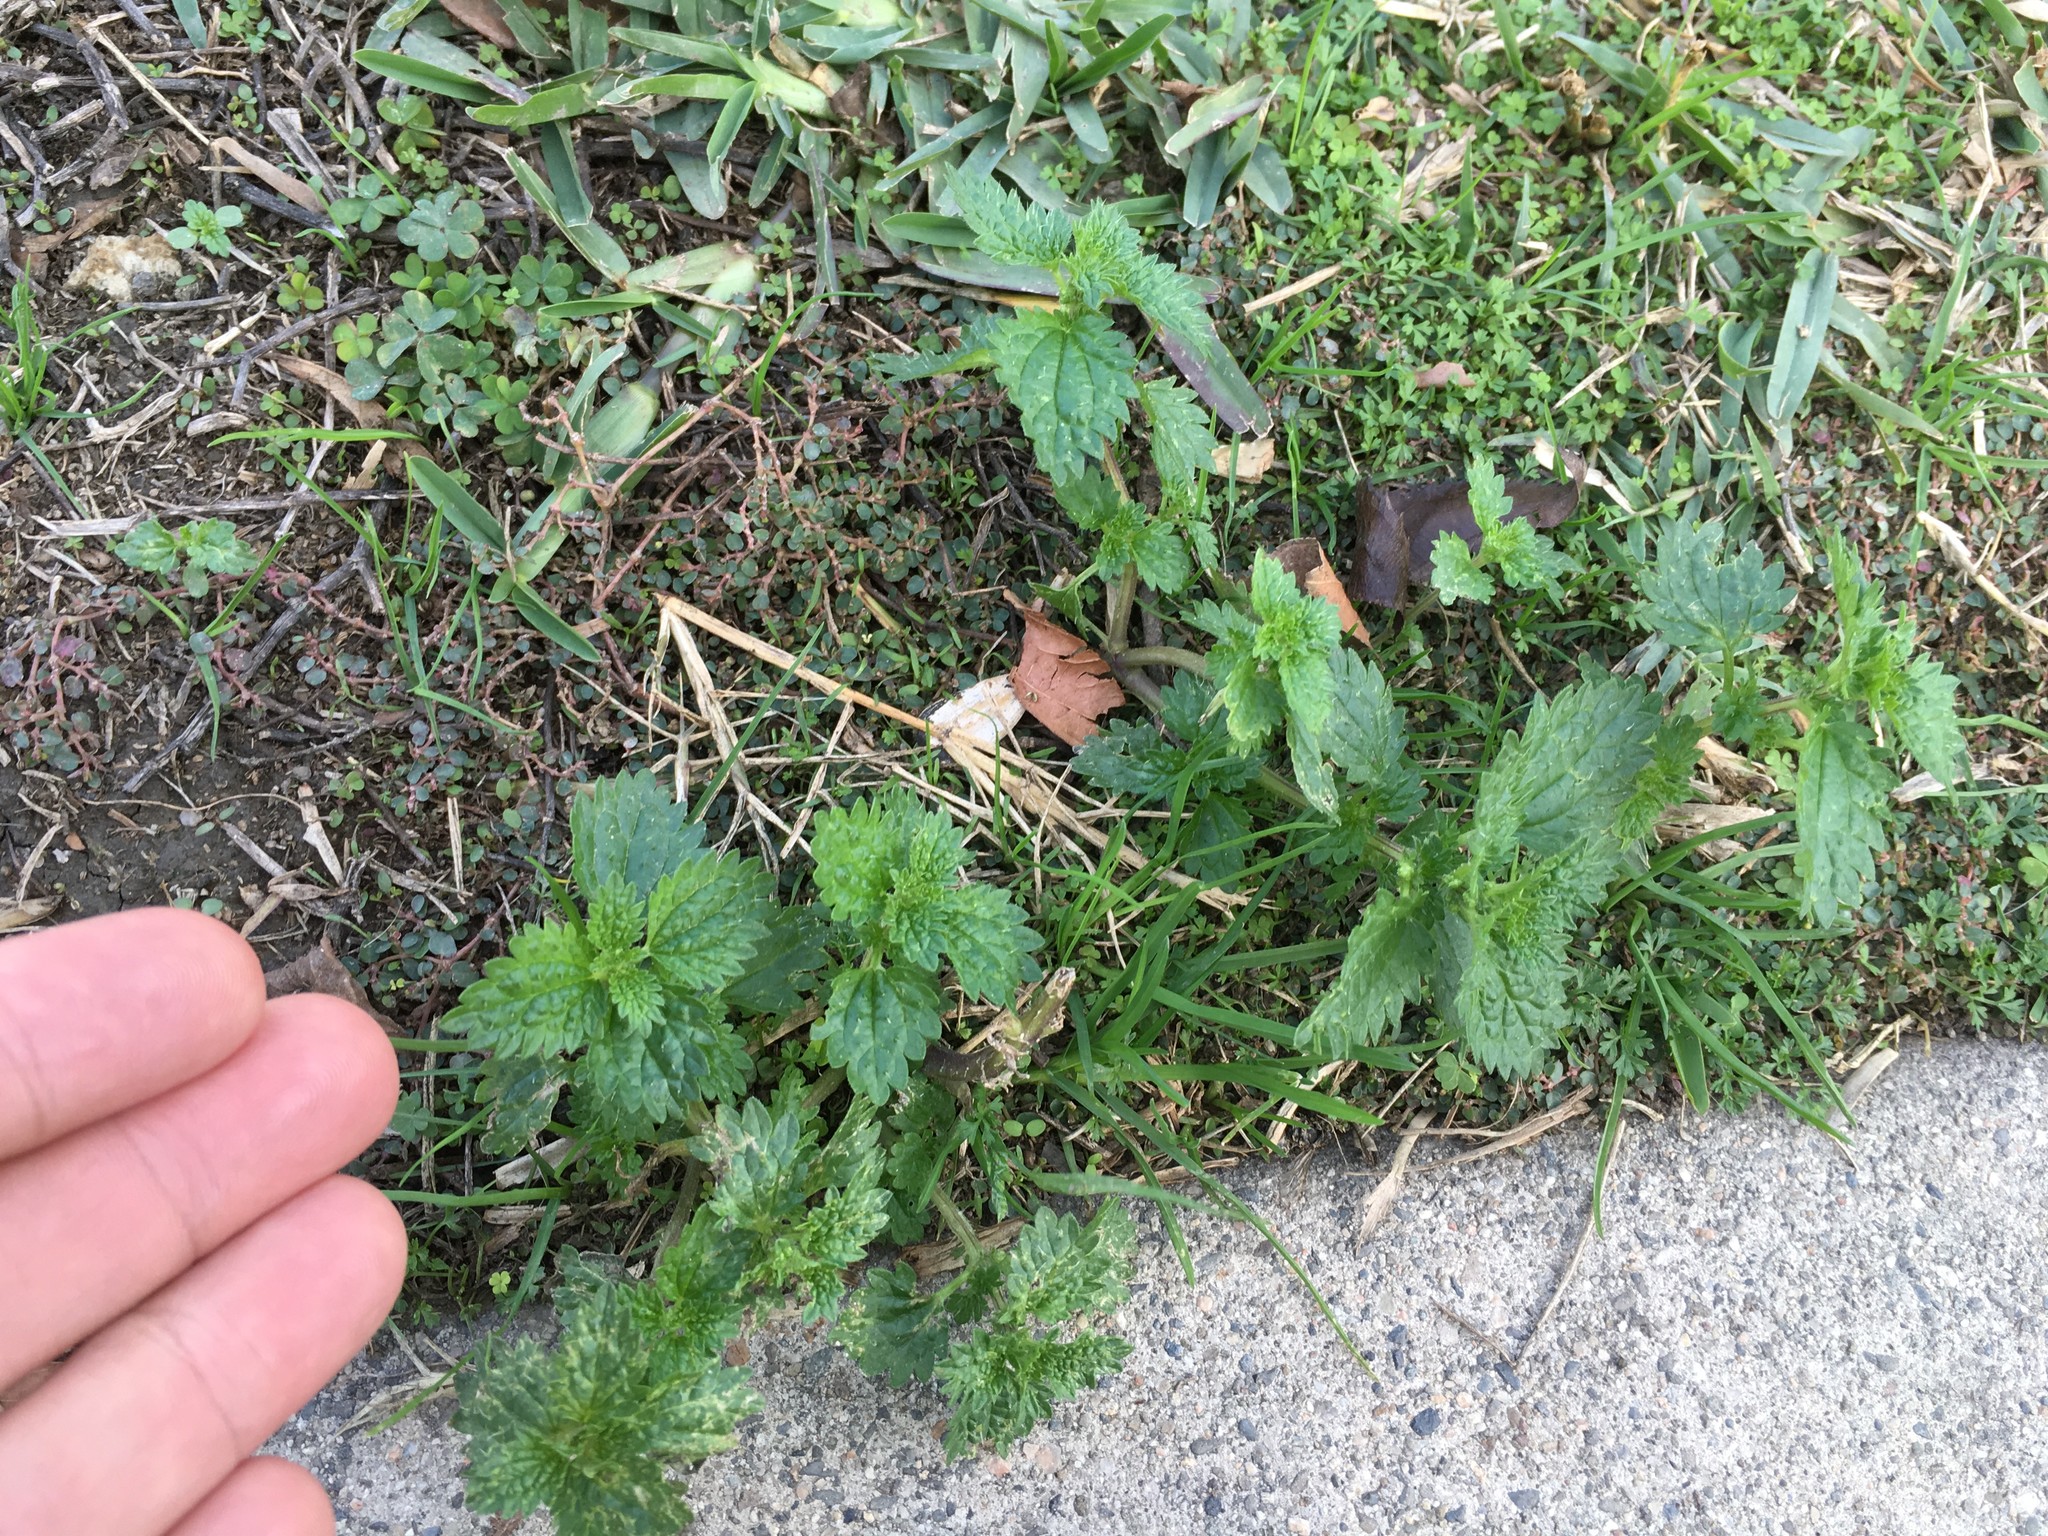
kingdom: Plantae
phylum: Tracheophyta
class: Magnoliopsida
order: Rosales
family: Urticaceae
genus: Urtica
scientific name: Urtica urens
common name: Dwarf nettle
